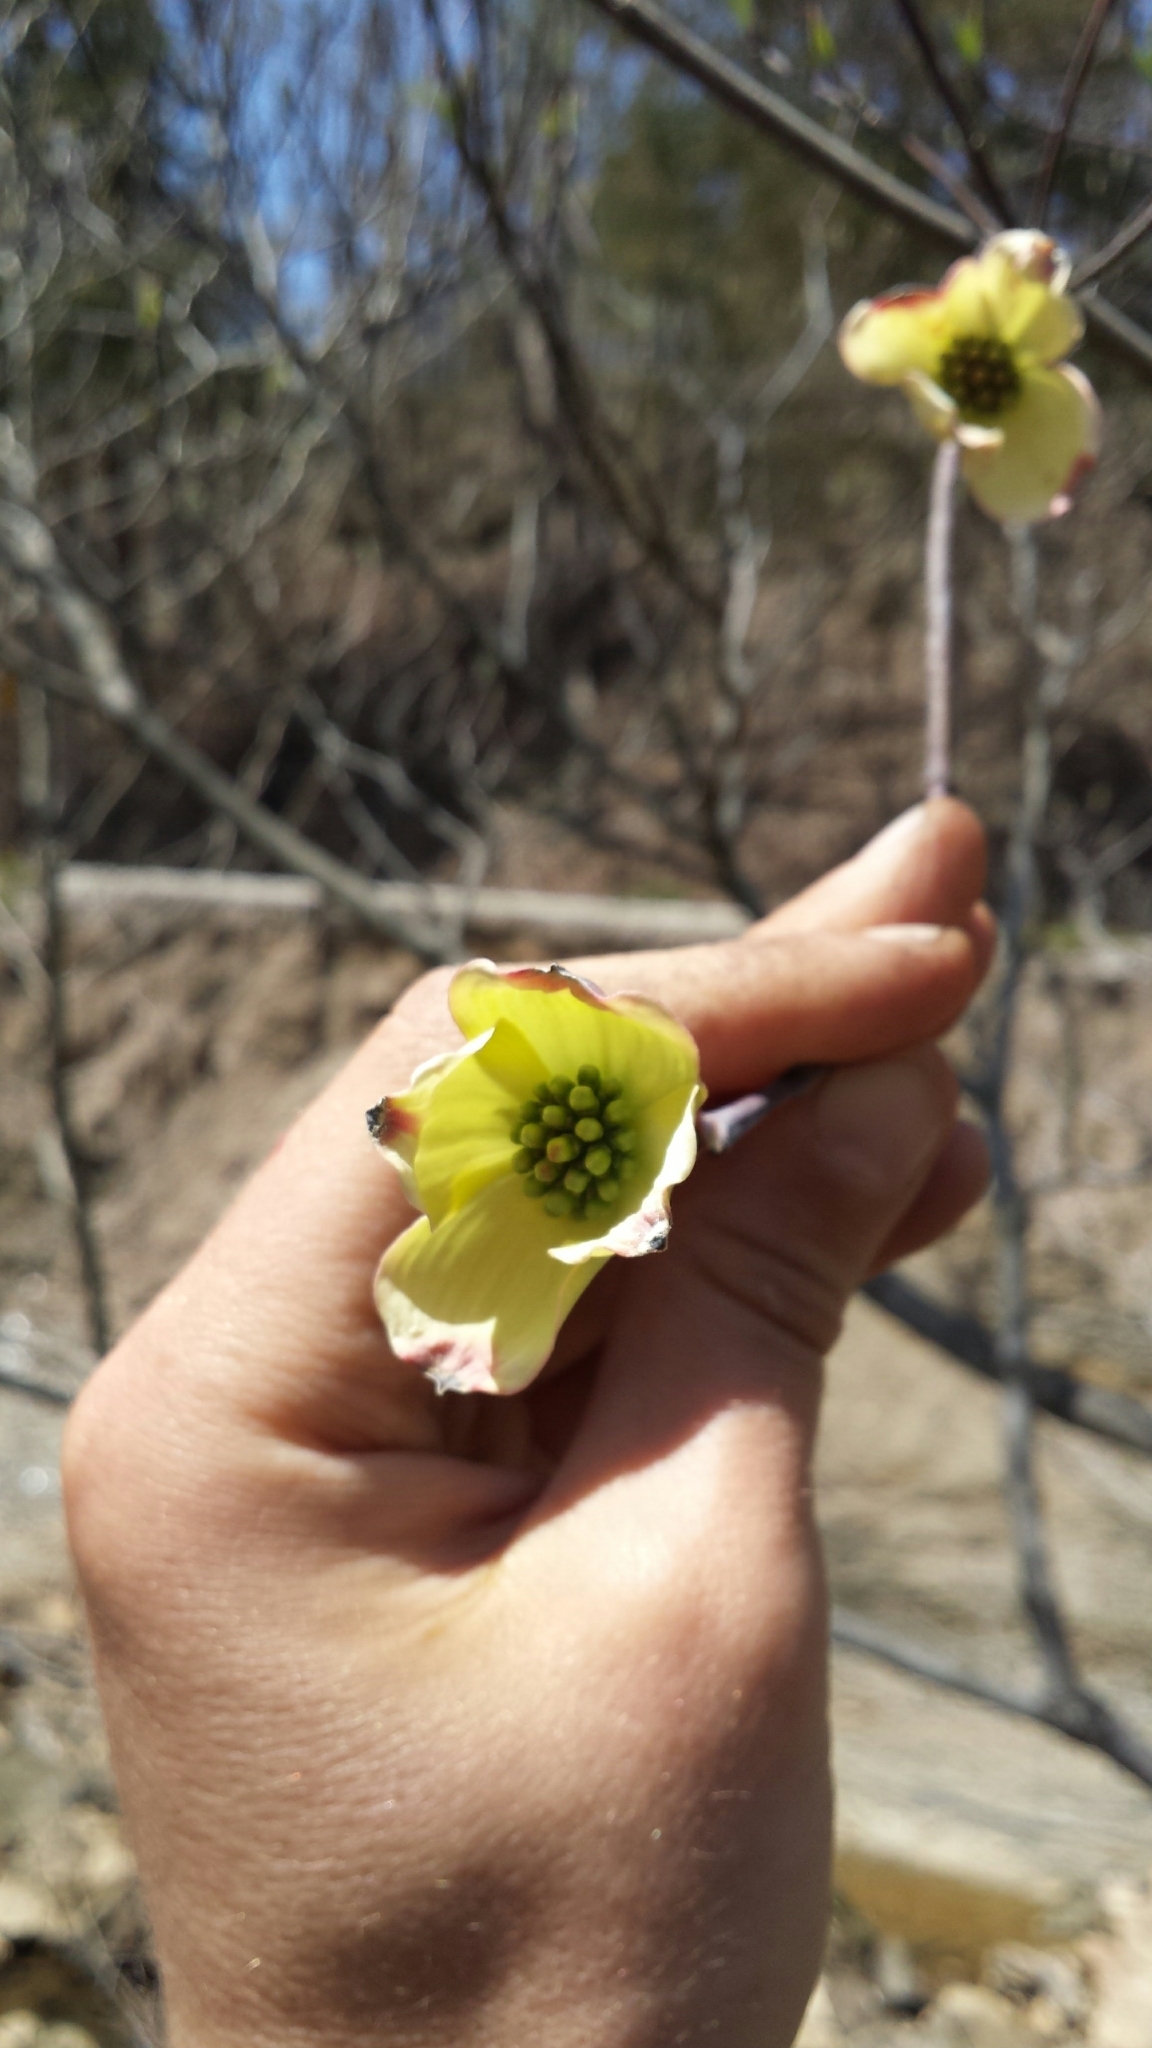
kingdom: Plantae
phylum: Tracheophyta
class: Magnoliopsida
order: Cornales
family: Cornaceae
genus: Cornus
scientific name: Cornus florida
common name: Flowering dogwood
